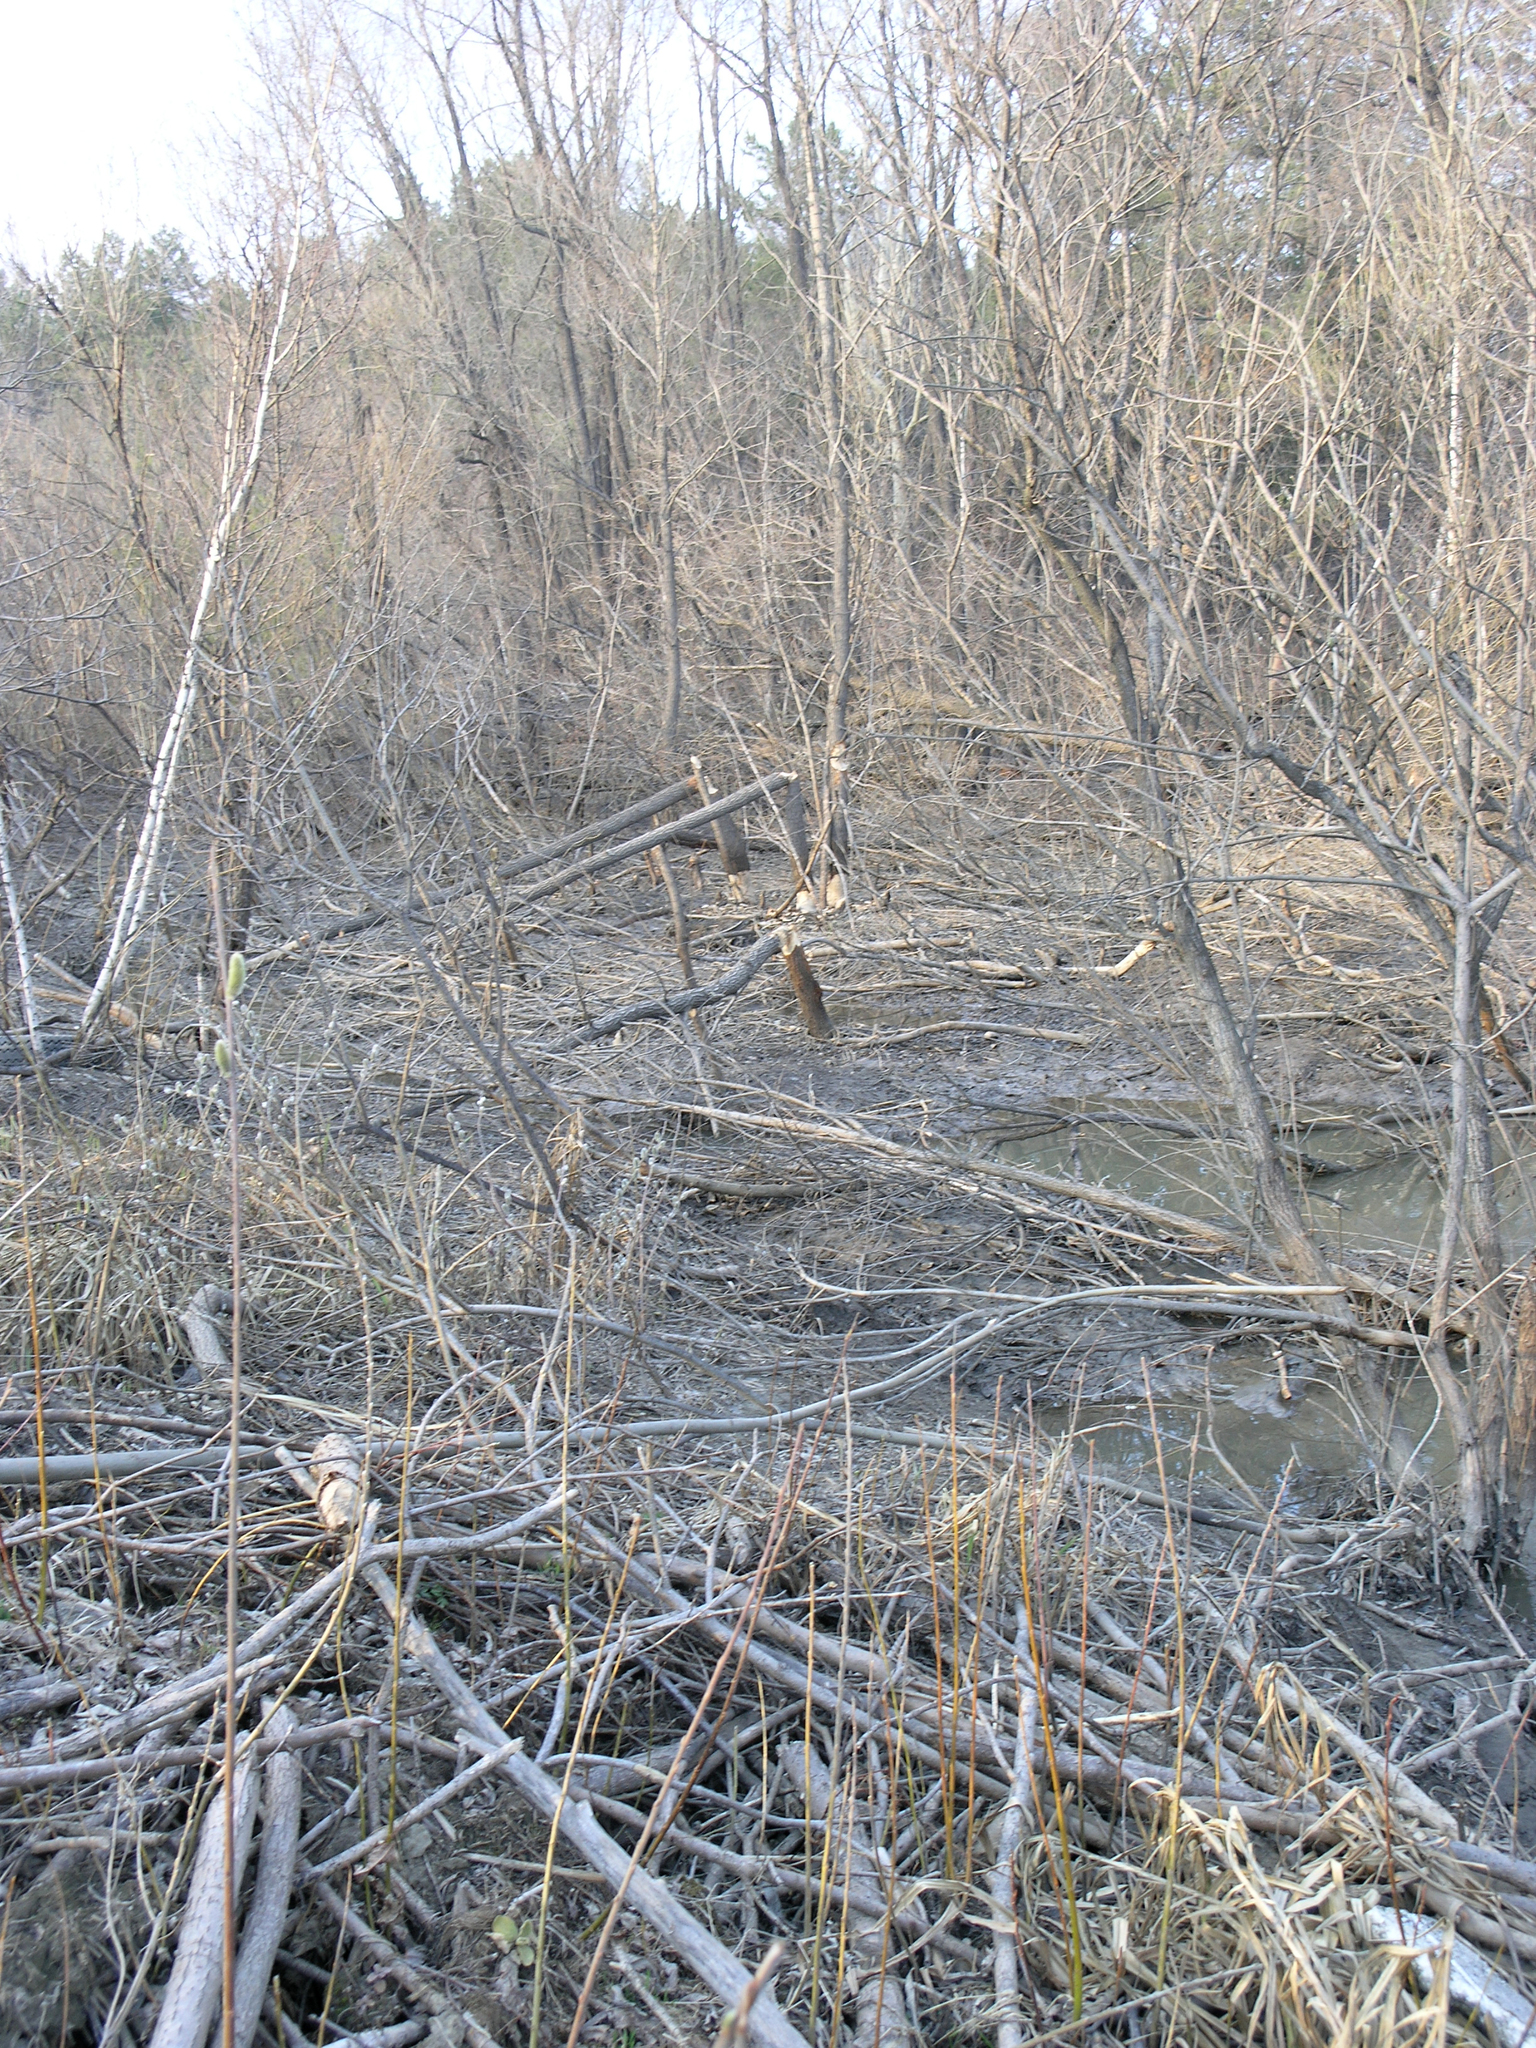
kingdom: Animalia
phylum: Chordata
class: Mammalia
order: Rodentia
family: Castoridae
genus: Castor
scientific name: Castor fiber
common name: Eurasian beaver
